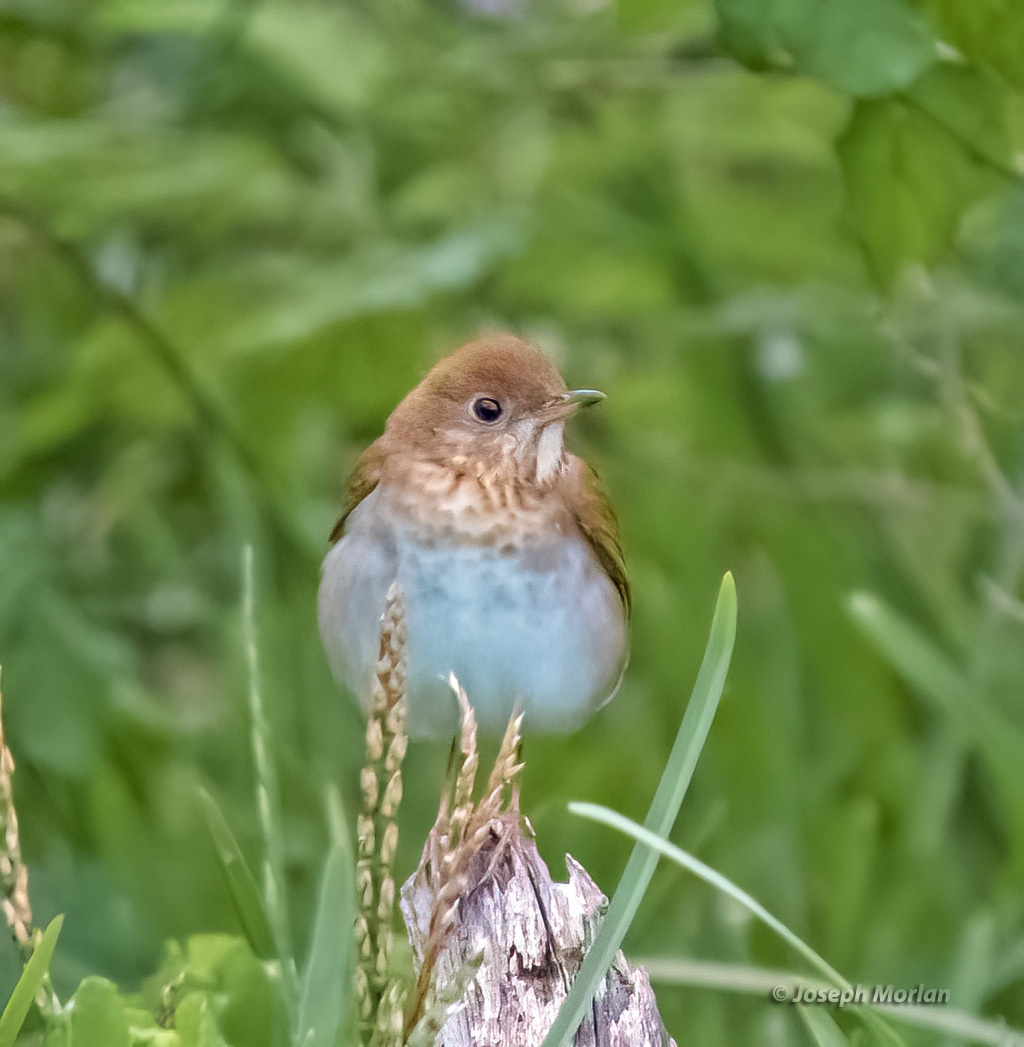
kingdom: Animalia
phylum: Chordata
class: Aves
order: Passeriformes
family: Turdidae
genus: Catharus
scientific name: Catharus fuscescens
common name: Veery
